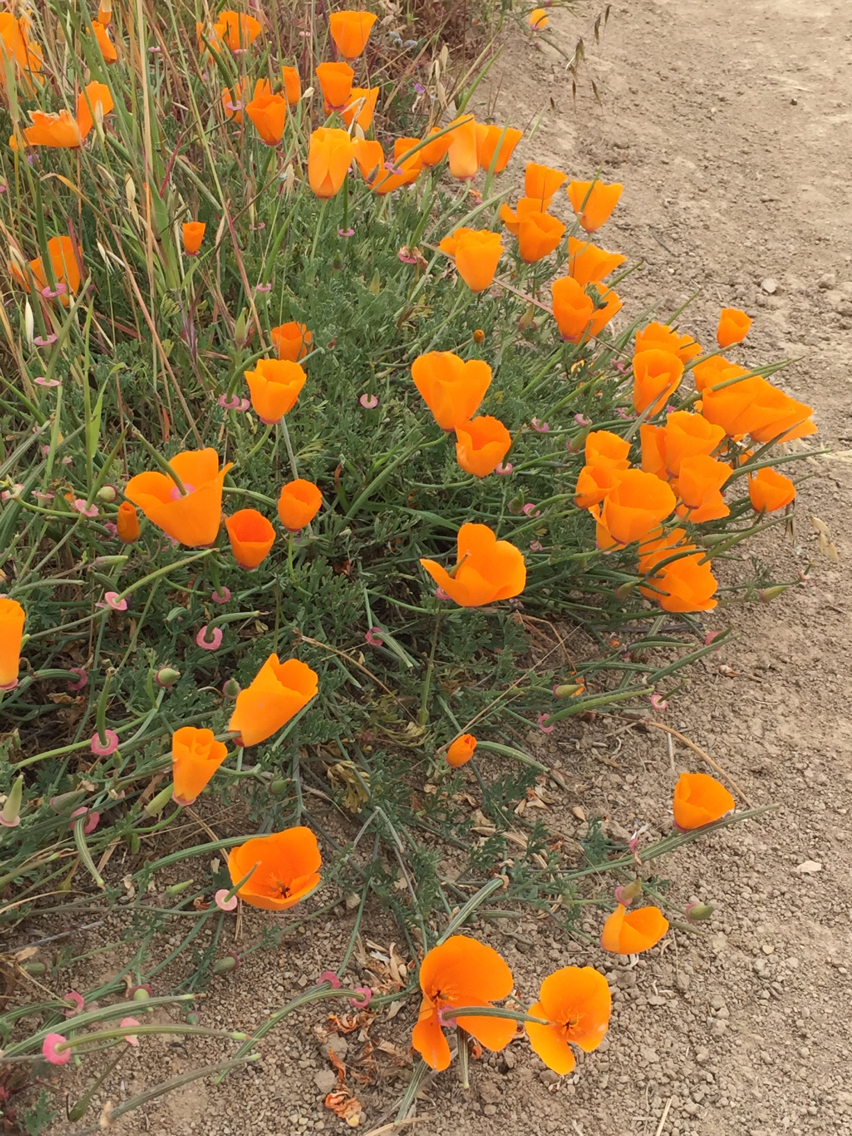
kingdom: Plantae
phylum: Tracheophyta
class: Magnoliopsida
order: Ranunculales
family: Papaveraceae
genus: Eschscholzia
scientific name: Eschscholzia californica
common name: California poppy
